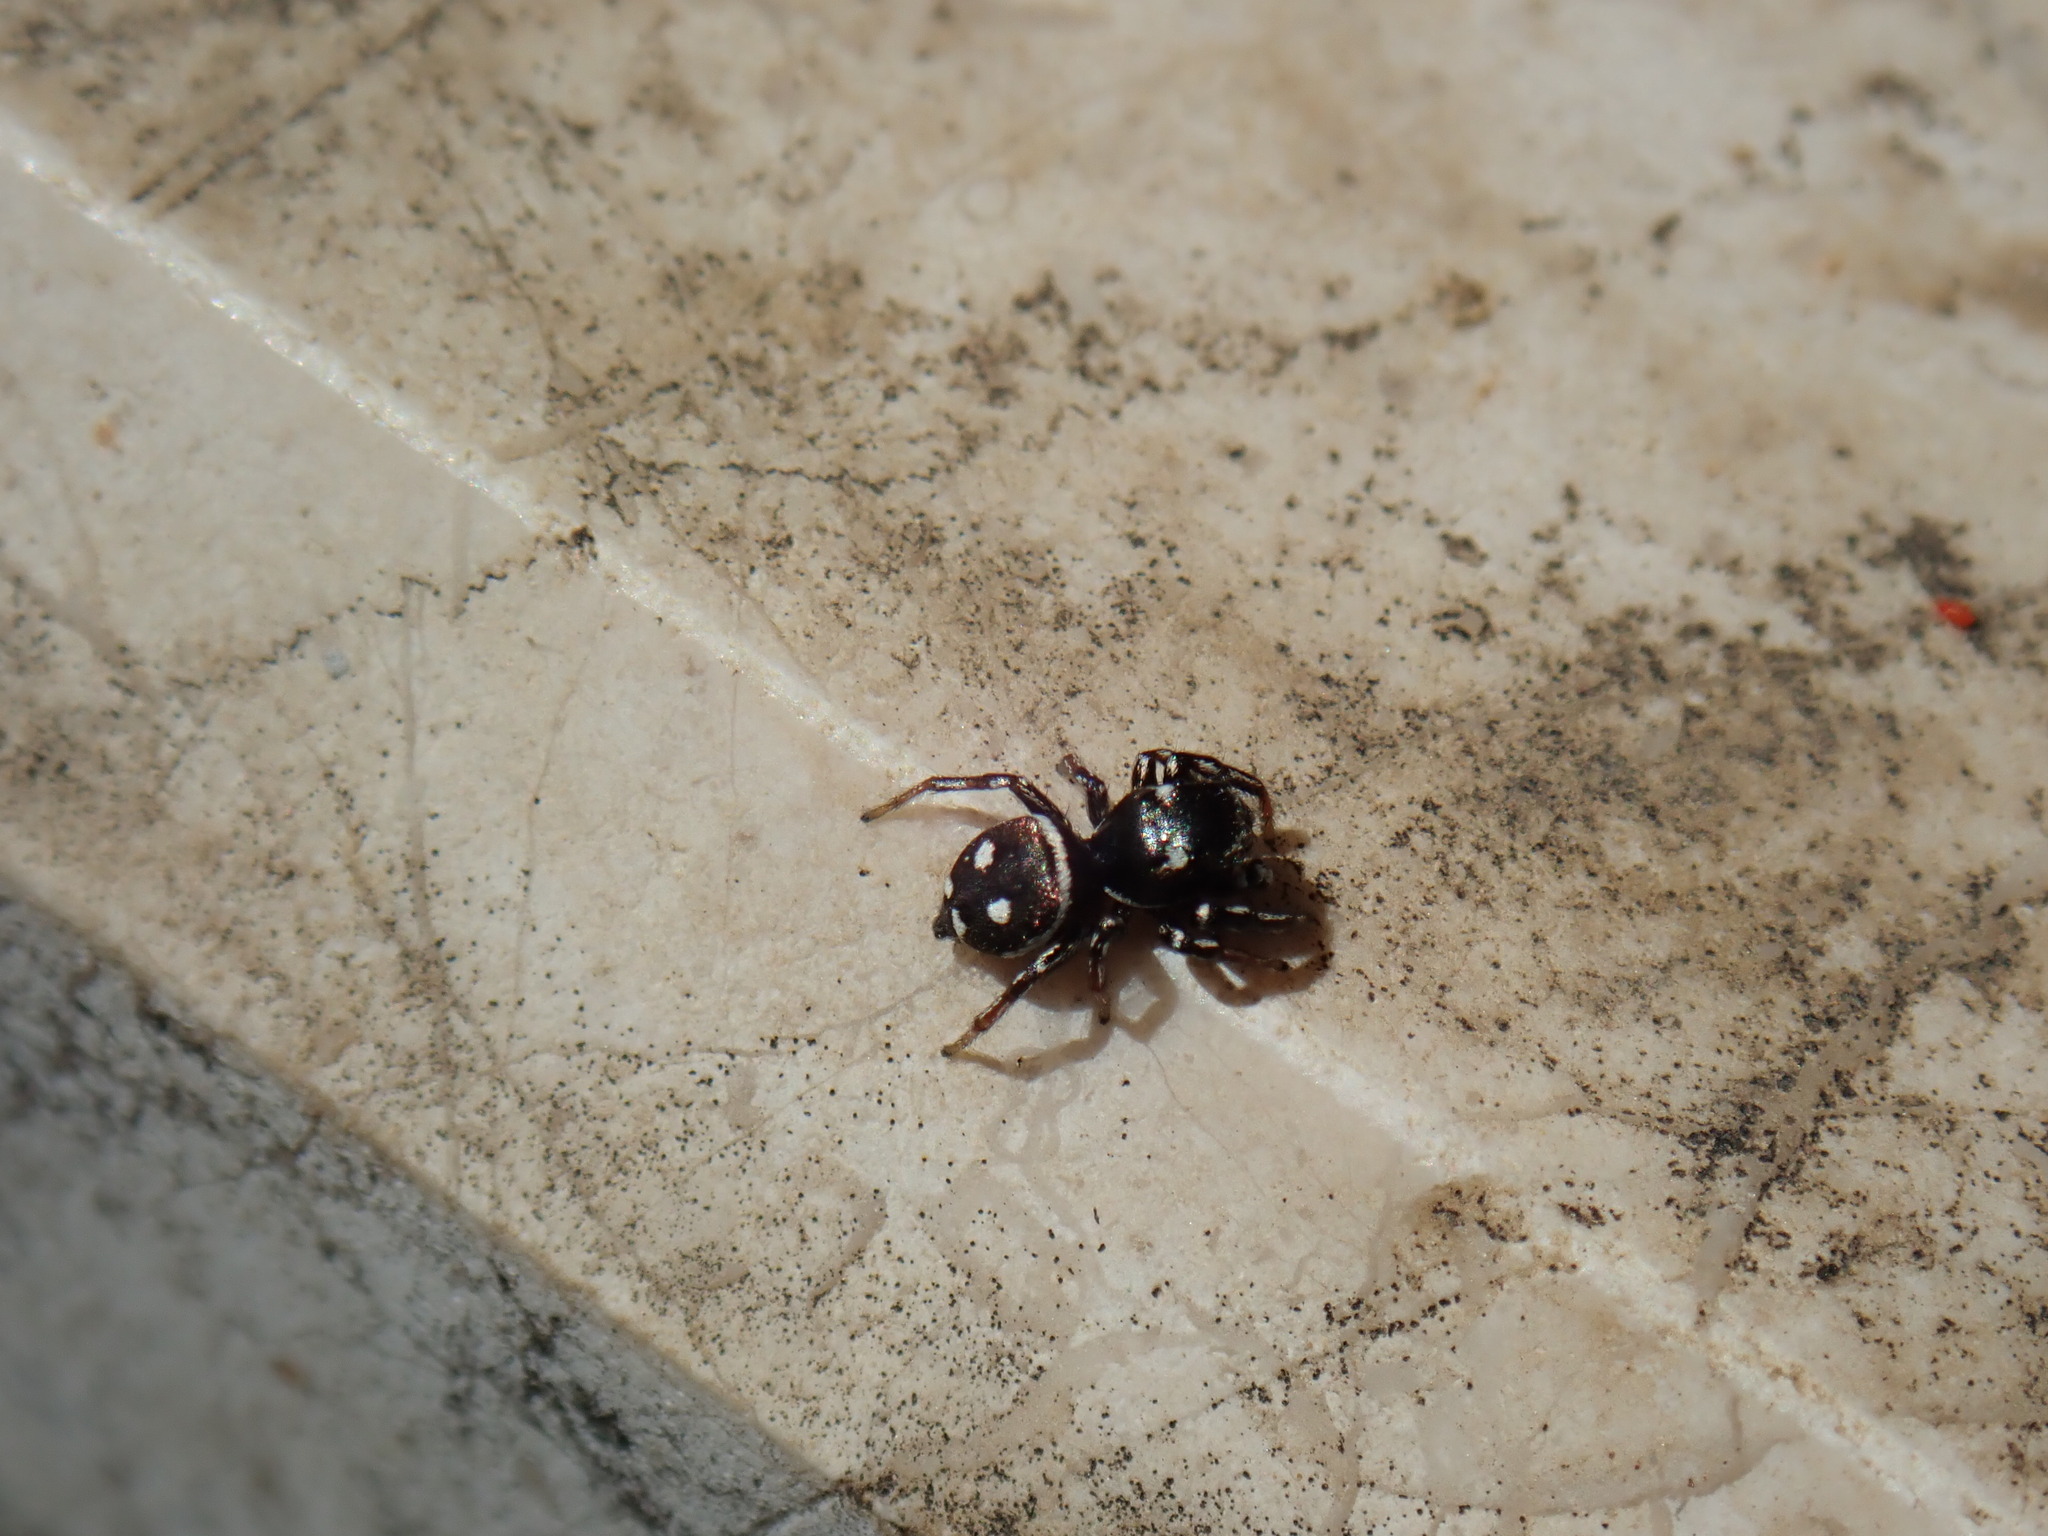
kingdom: Animalia
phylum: Arthropoda
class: Arachnida
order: Araneae
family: Salticidae
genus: Heliophanus
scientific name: Heliophanus apiatus
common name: Sun jumping spider
